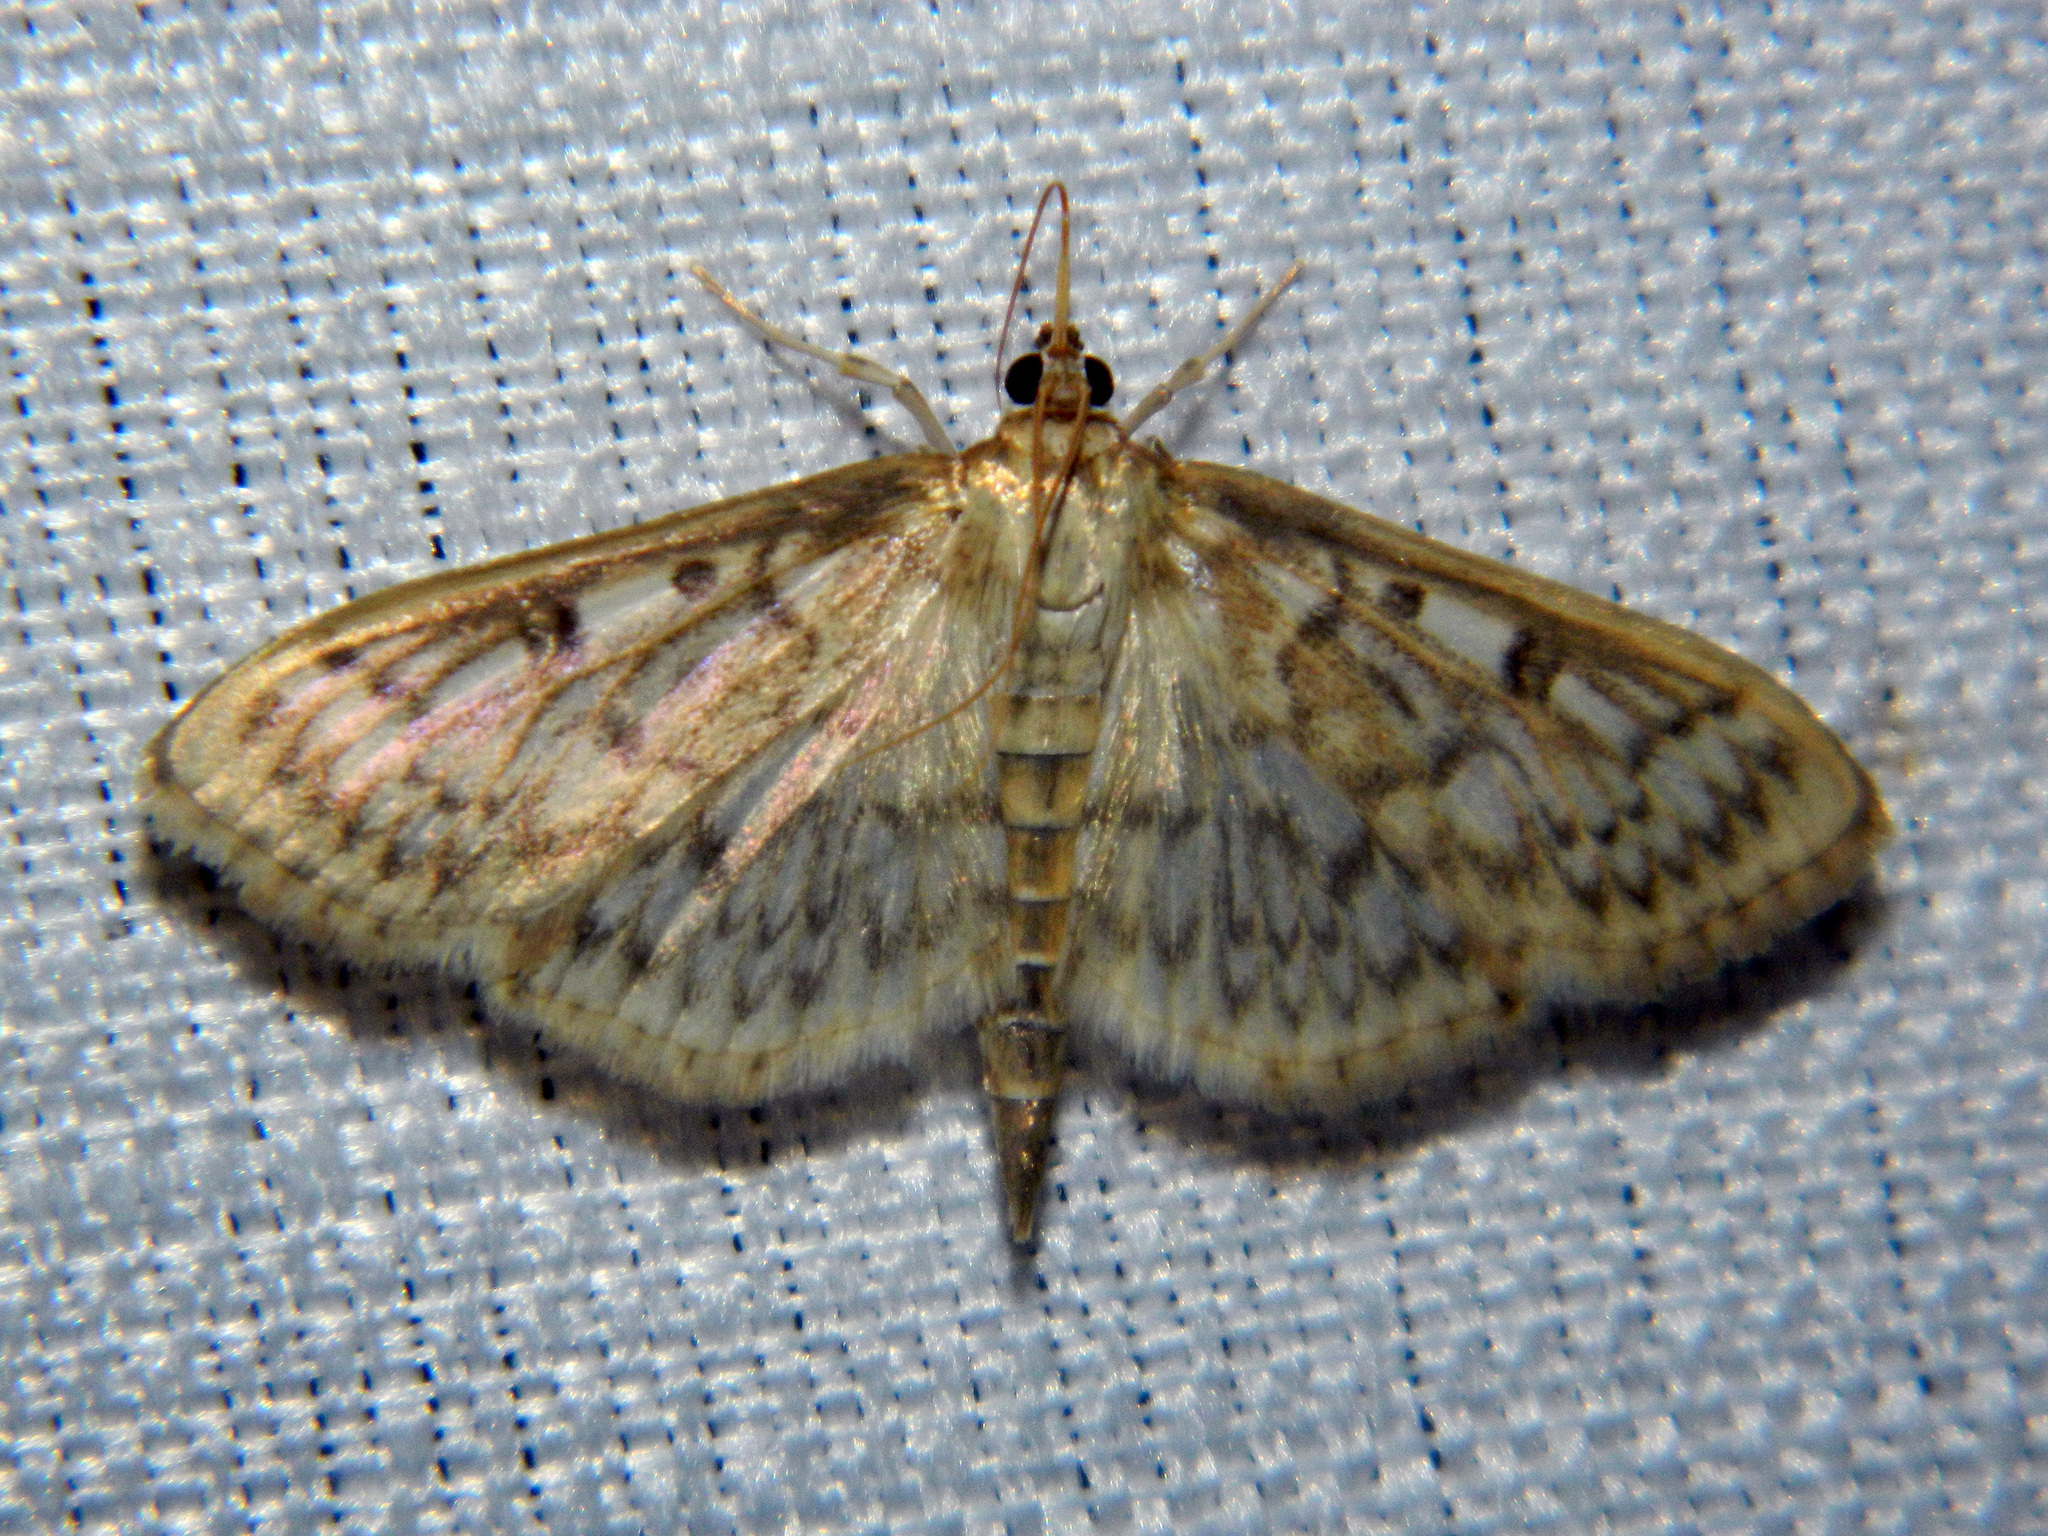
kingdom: Animalia
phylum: Arthropoda
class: Insecta
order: Lepidoptera
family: Crambidae
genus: Herpetogramma
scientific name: Herpetogramma pertextalis
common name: Bold-feathered grass moth
